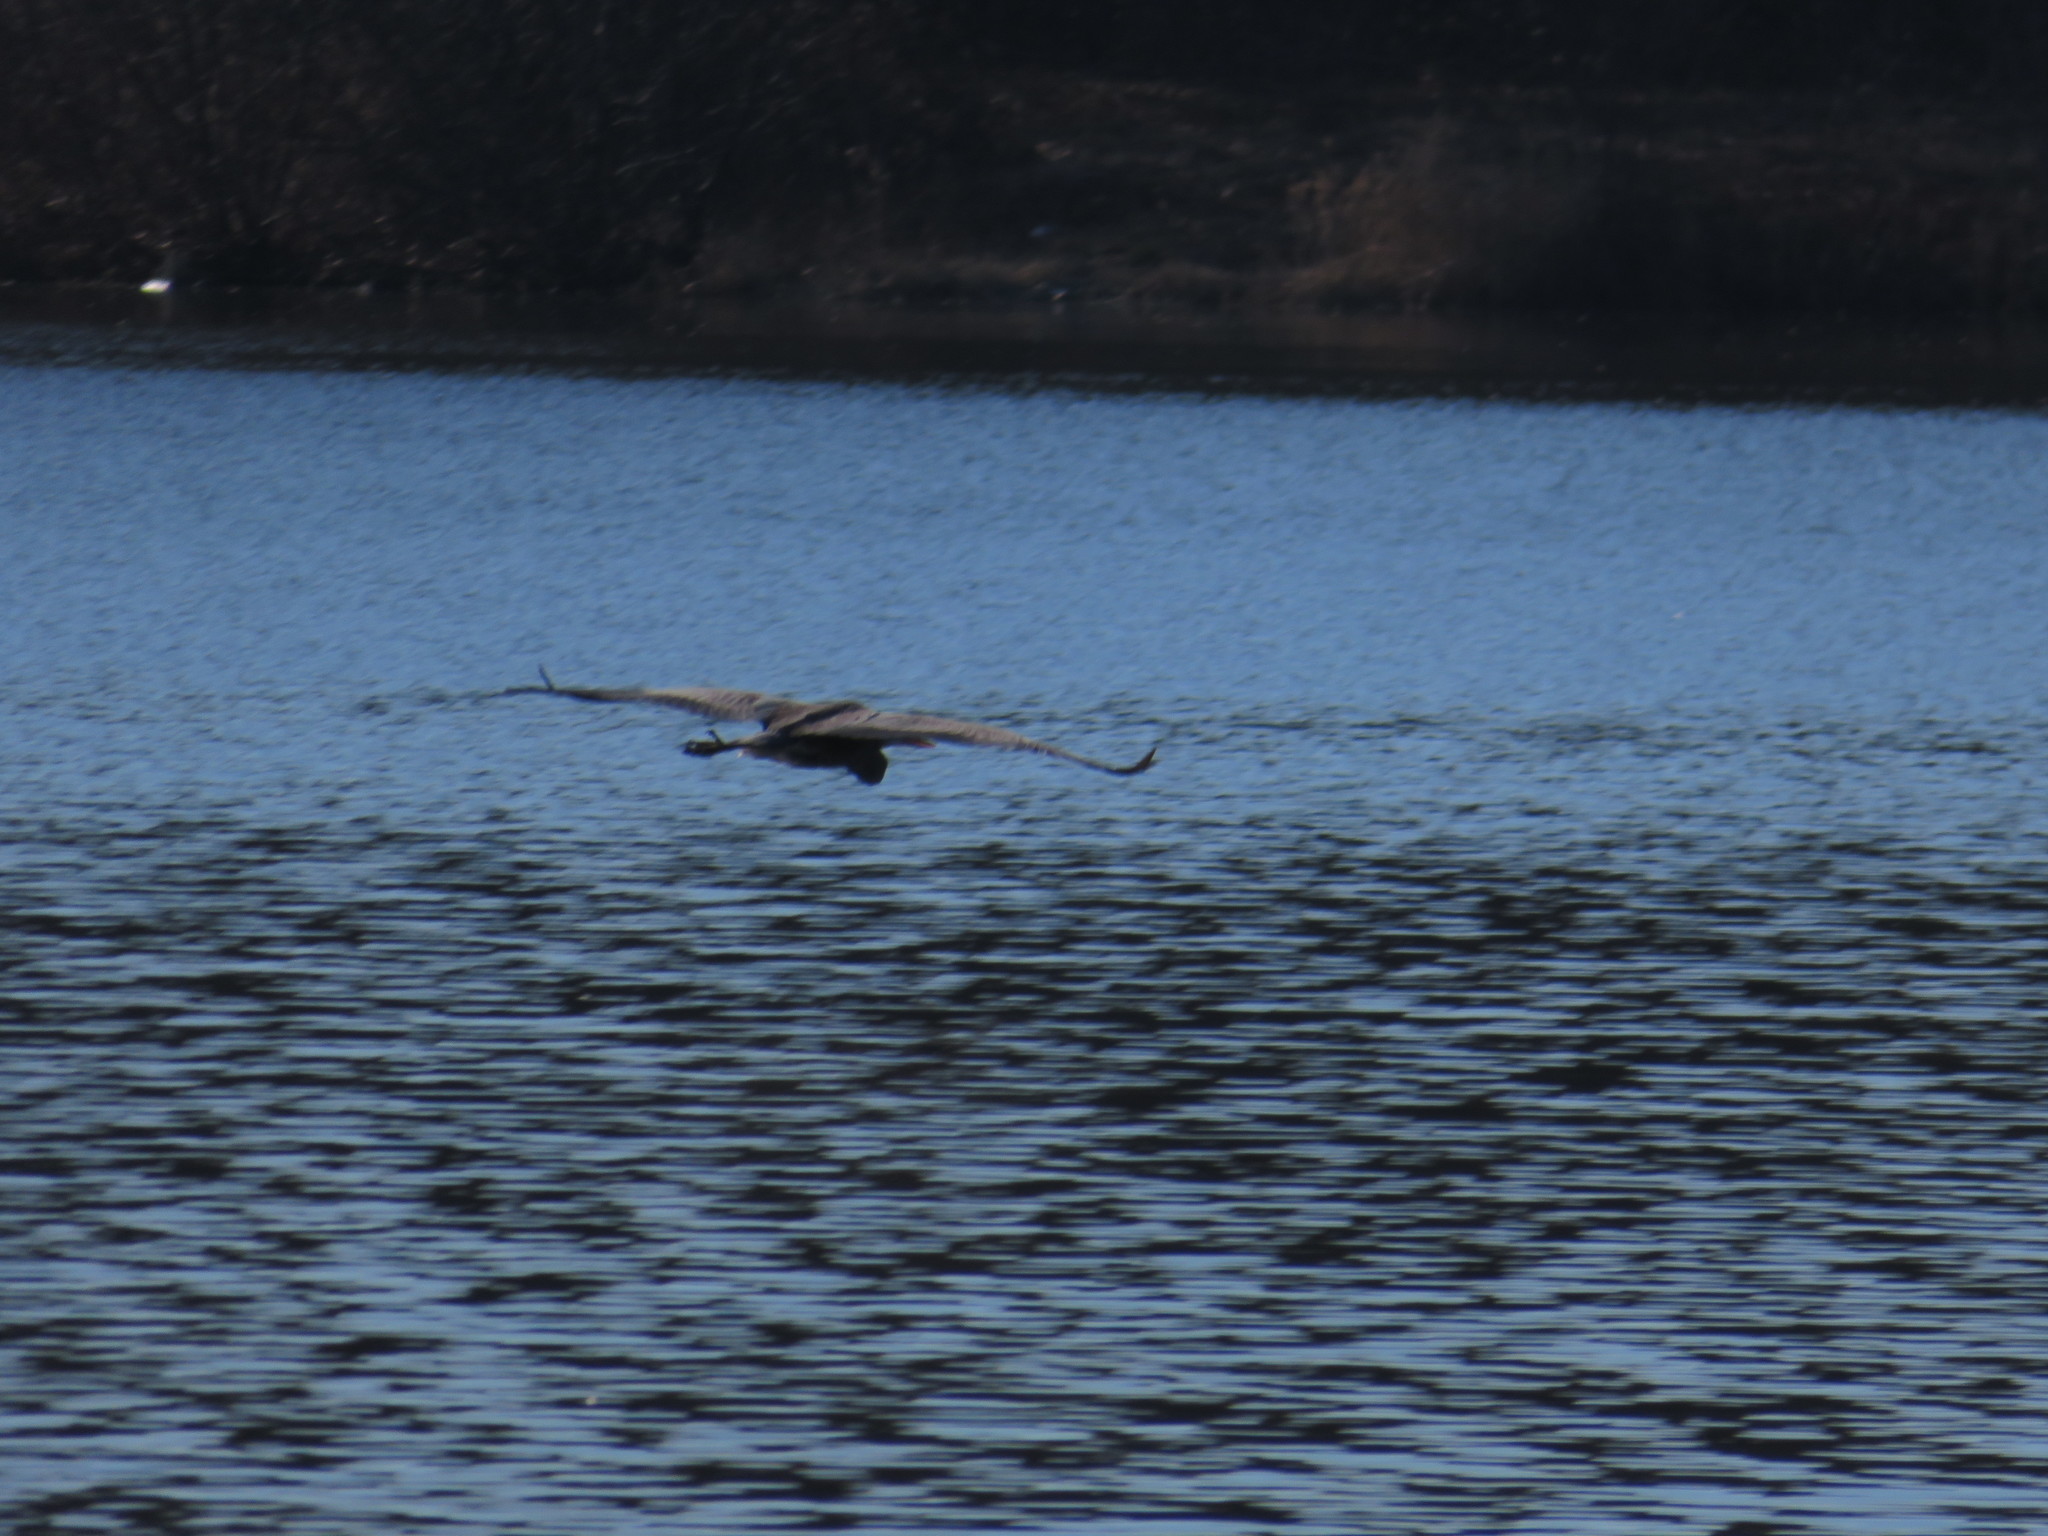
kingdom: Animalia
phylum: Chordata
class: Aves
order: Pelecaniformes
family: Ardeidae
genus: Ardea
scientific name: Ardea herodias
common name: Great blue heron
